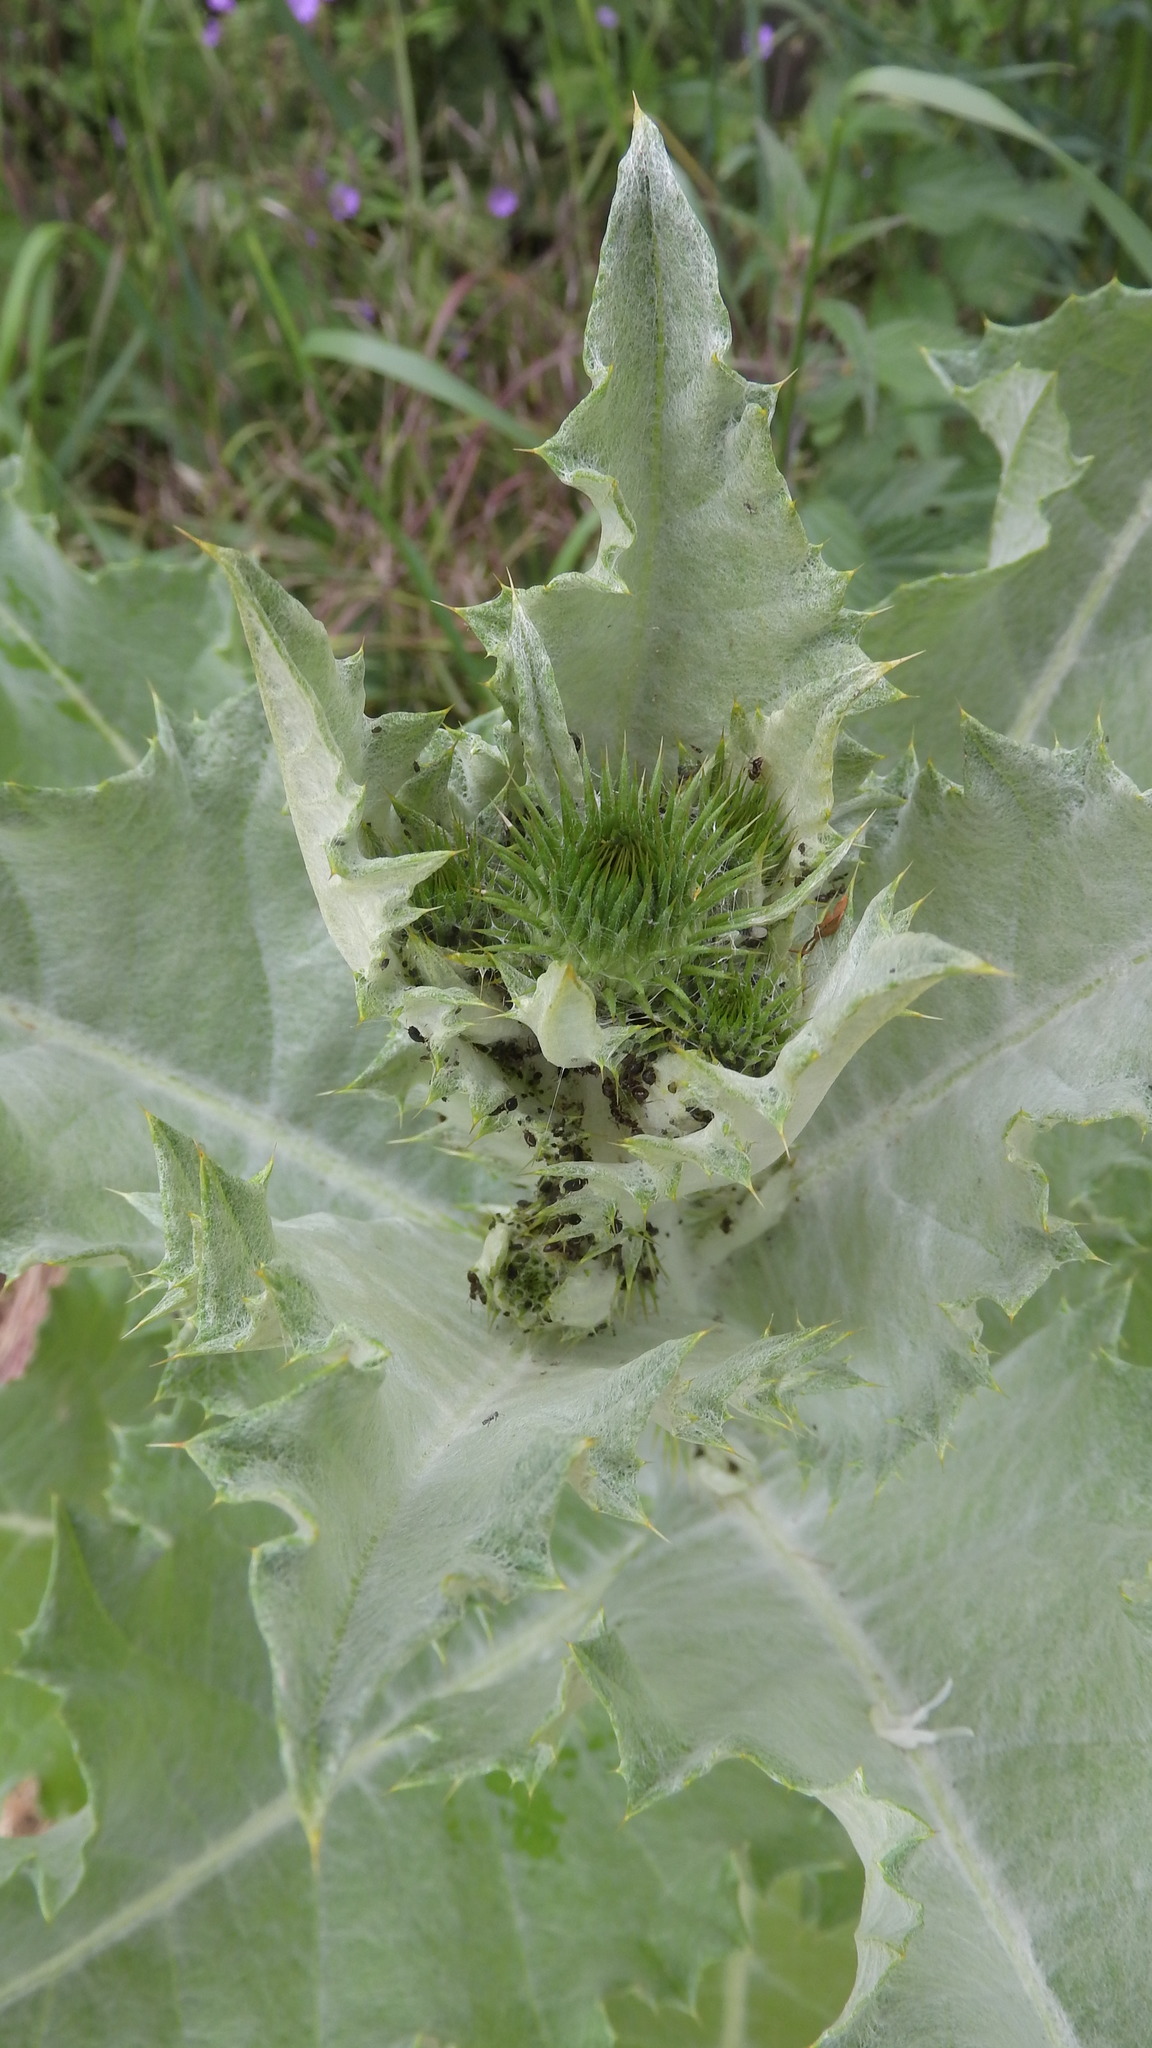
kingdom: Plantae
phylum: Tracheophyta
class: Magnoliopsida
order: Asterales
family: Asteraceae
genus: Onopordum
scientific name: Onopordum acanthium
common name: Scotch thistle
